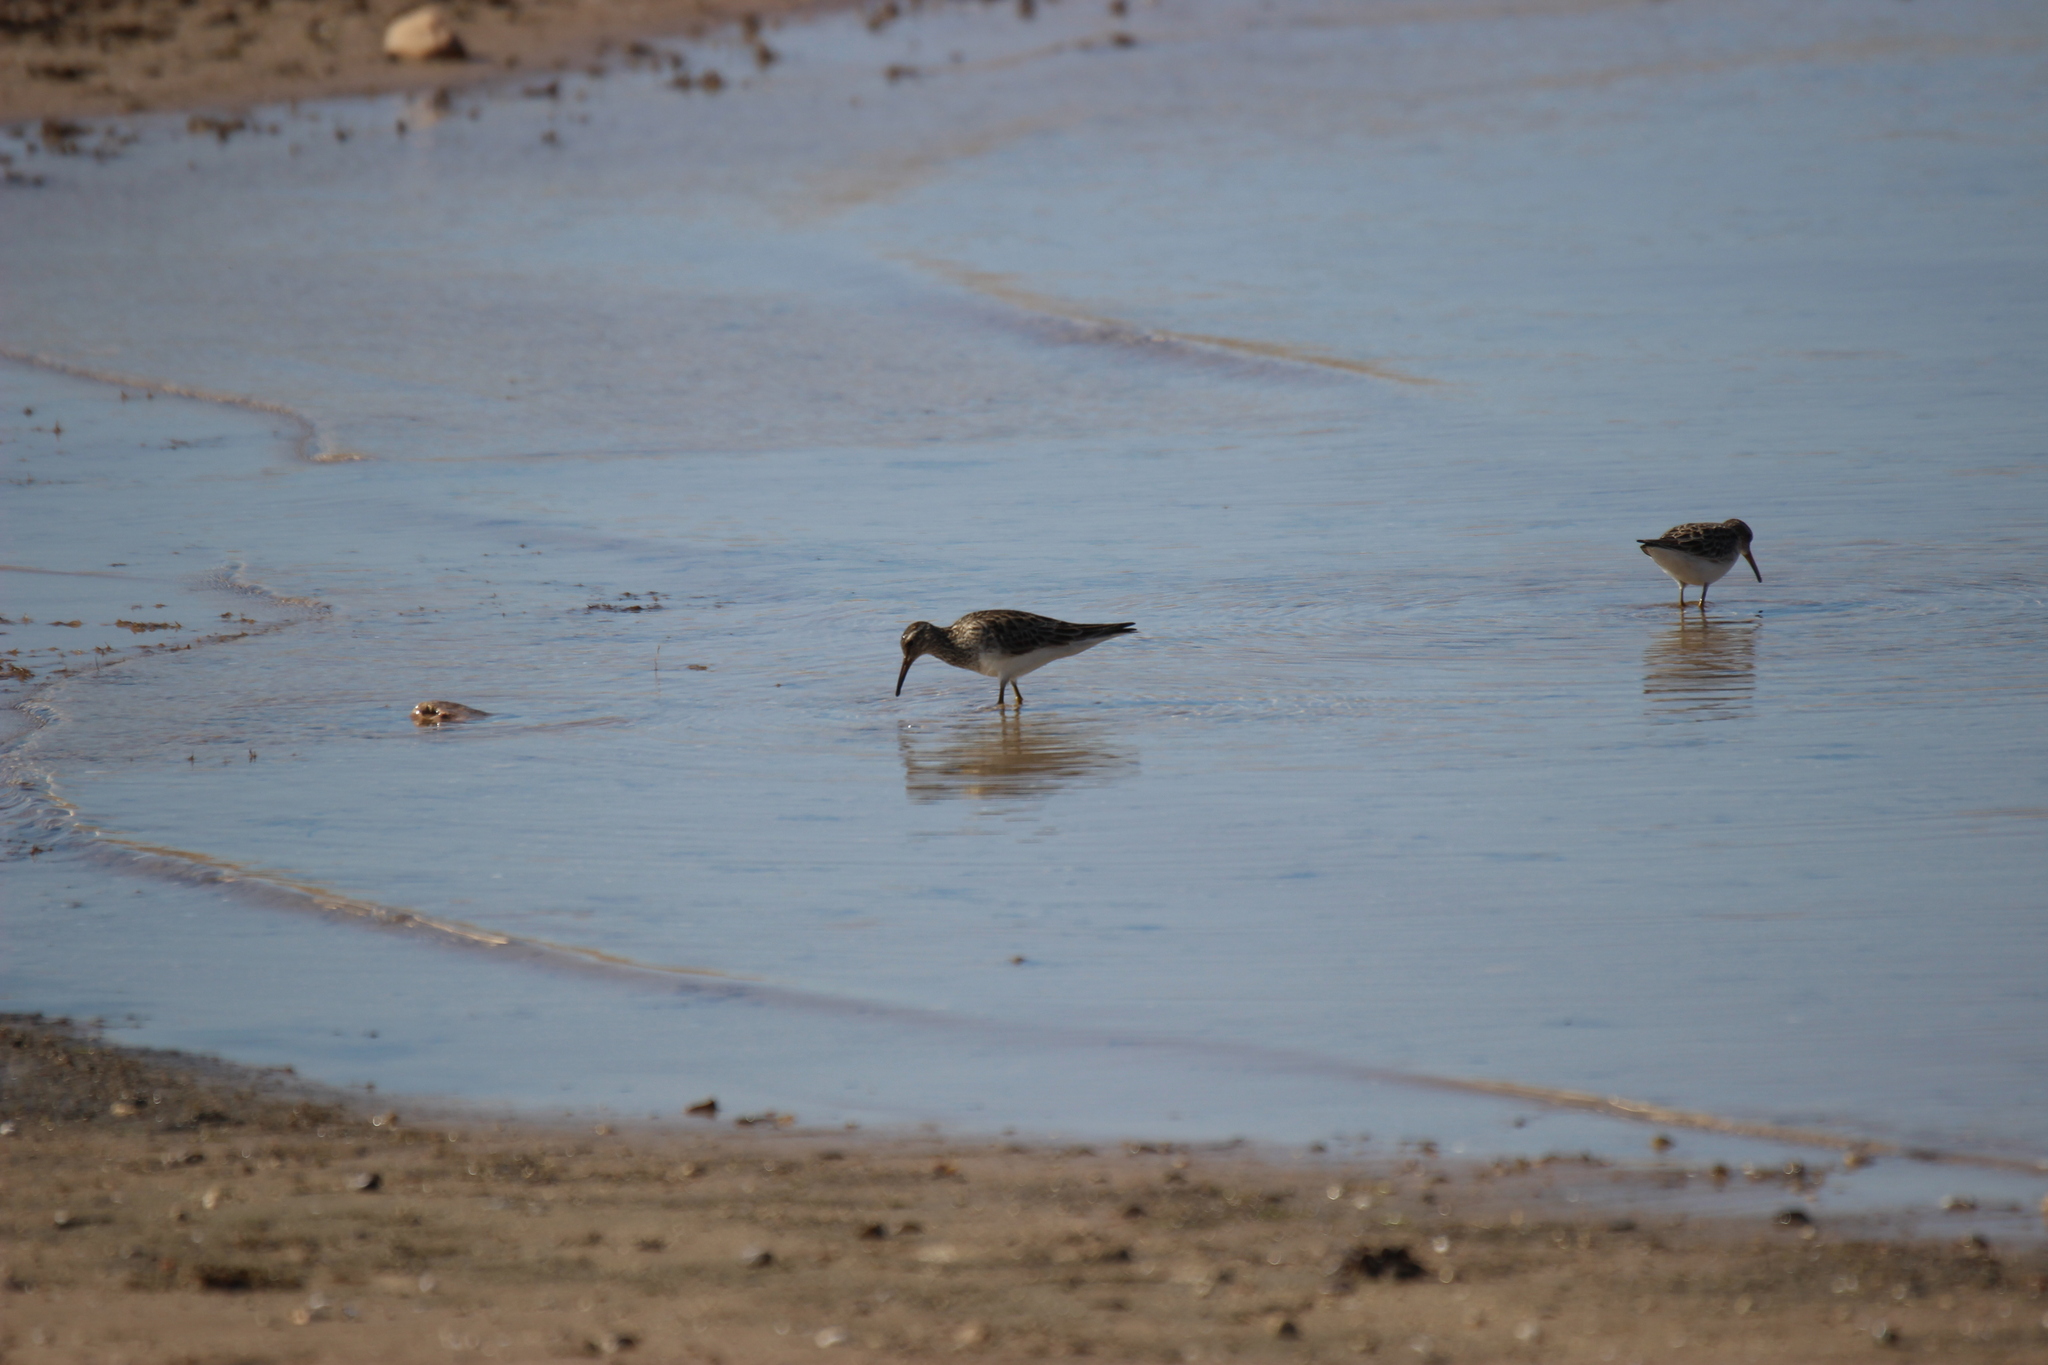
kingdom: Animalia
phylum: Chordata
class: Aves
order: Charadriiformes
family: Scolopacidae
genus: Calidris
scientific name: Calidris melanotos
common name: Pectoral sandpiper
